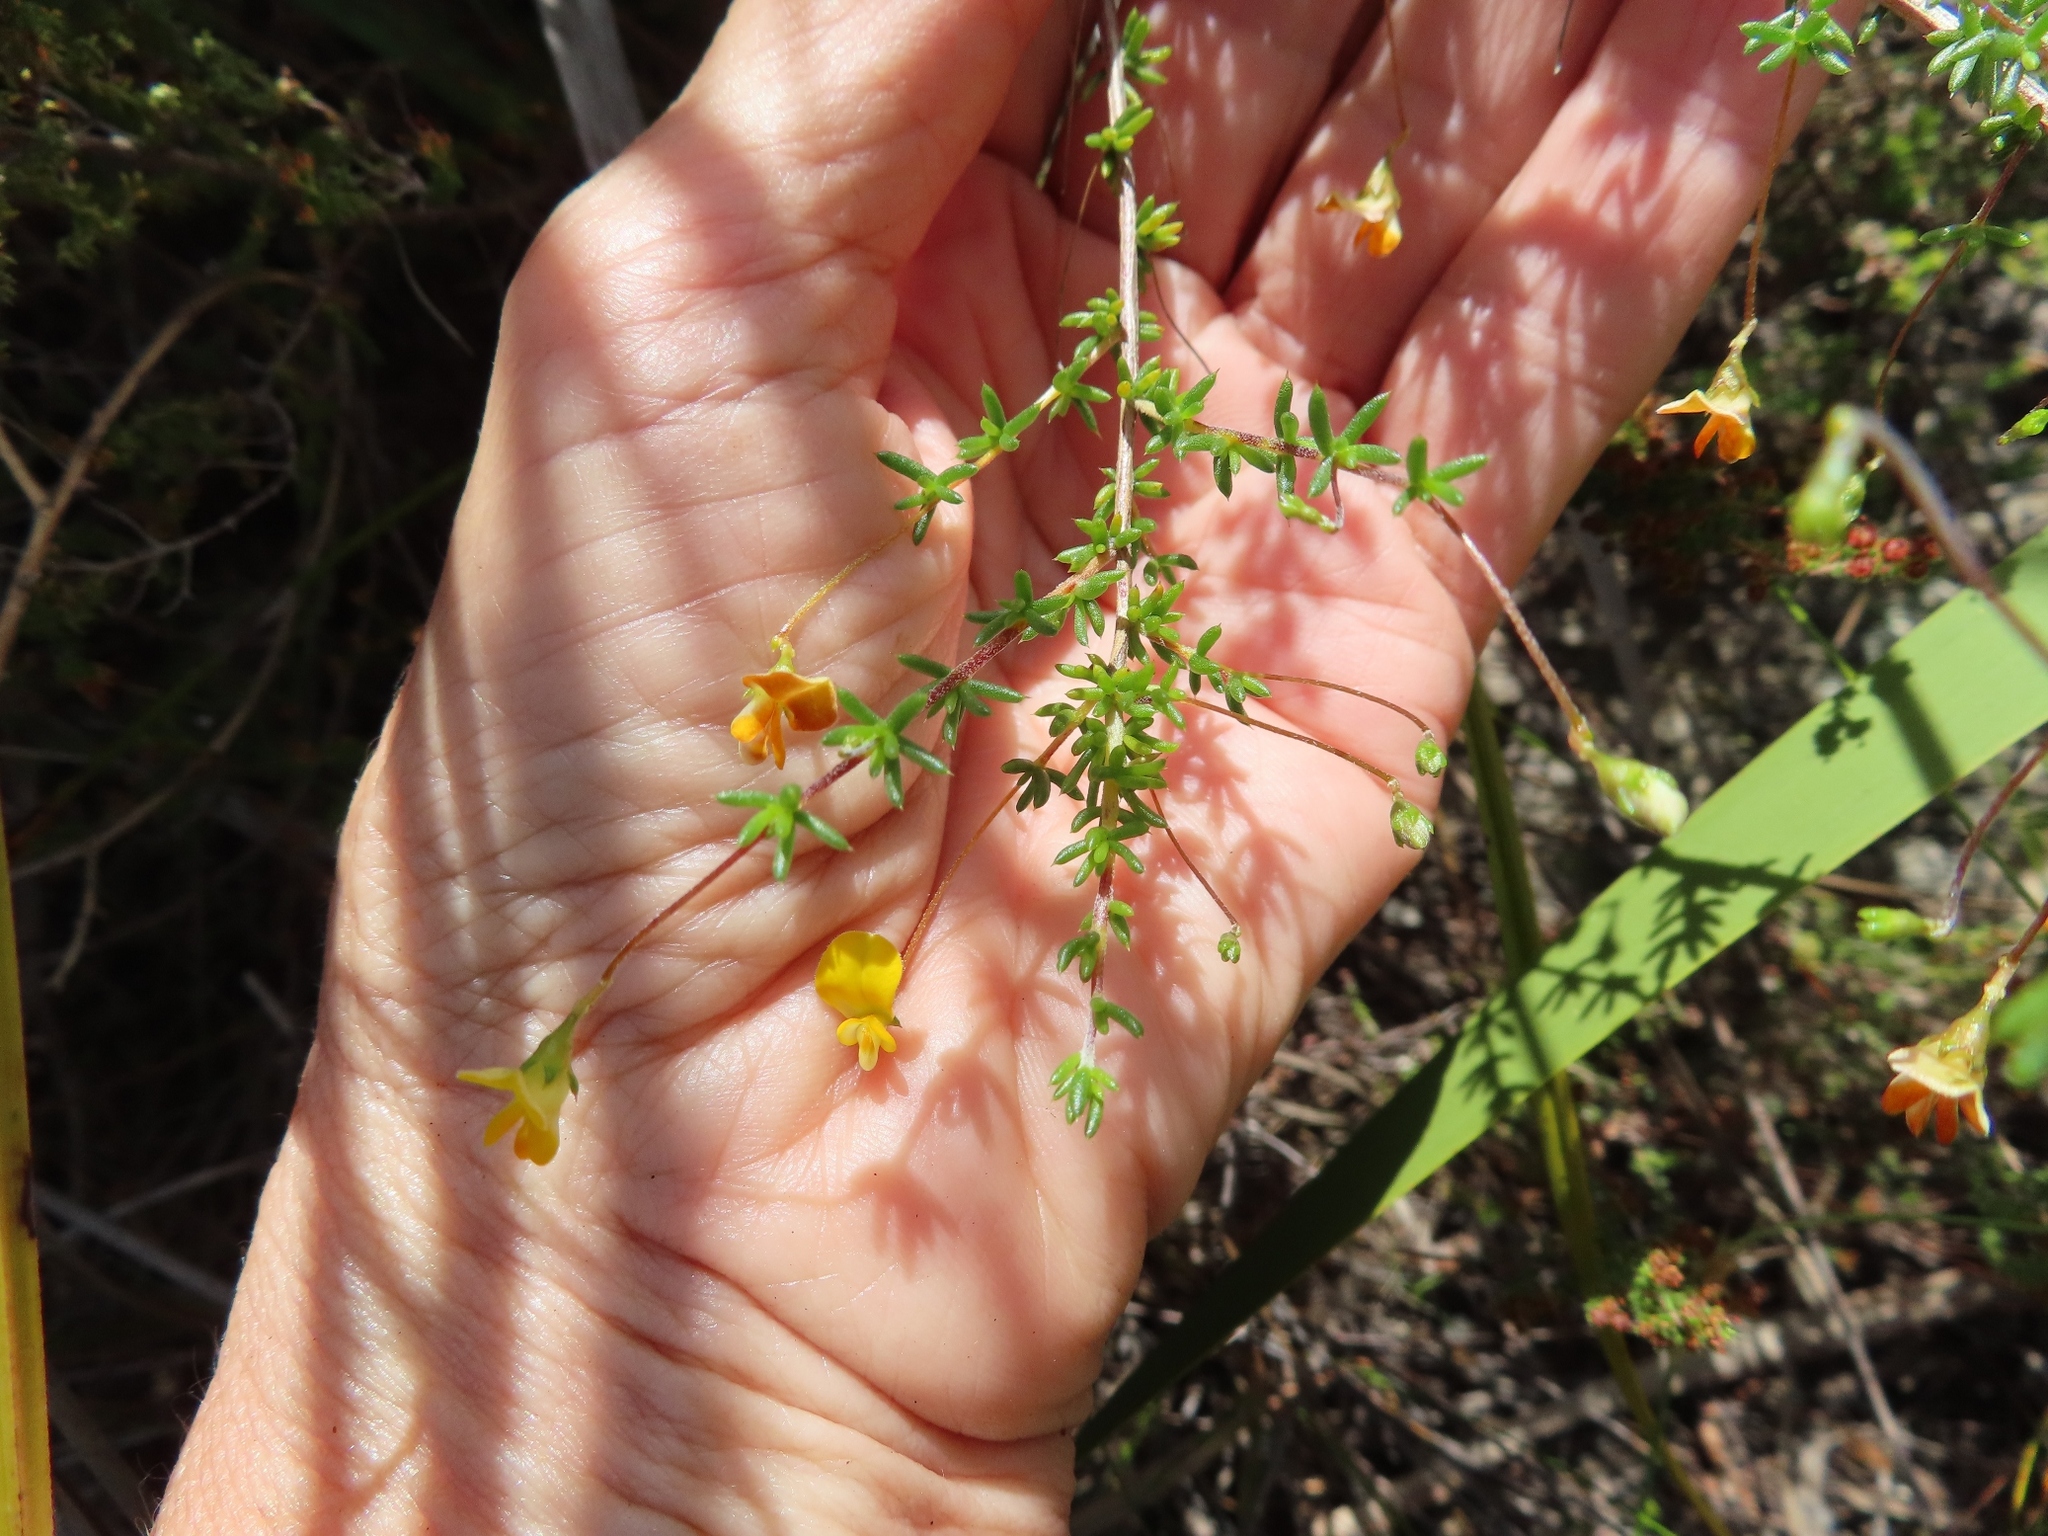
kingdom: Plantae
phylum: Tracheophyta
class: Magnoliopsida
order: Fabales
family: Fabaceae
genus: Aspalathus
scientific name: Aspalathus serpens
